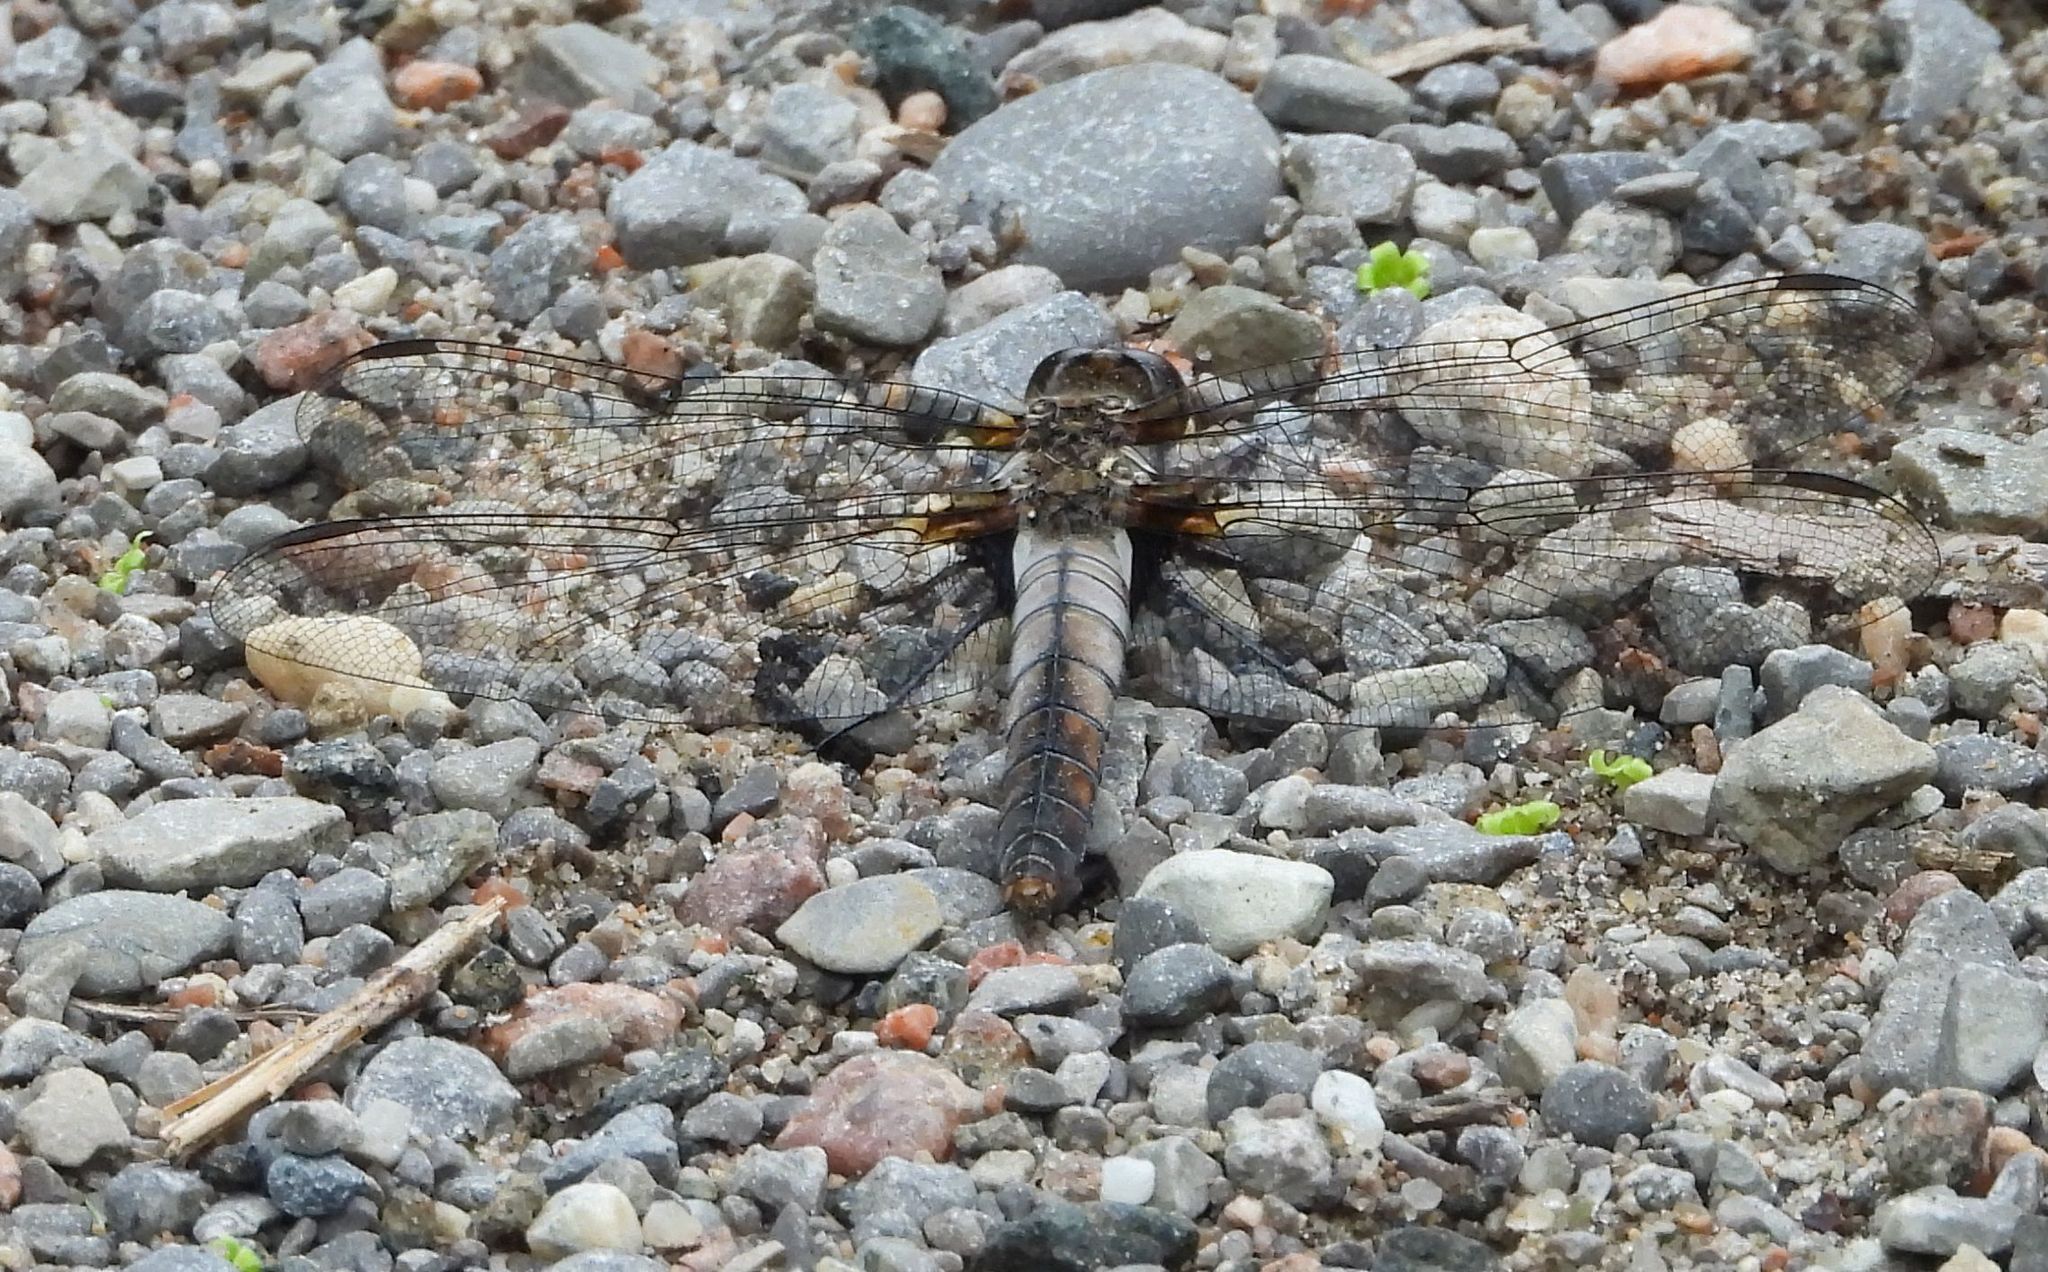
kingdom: Animalia
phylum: Arthropoda
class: Insecta
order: Odonata
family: Libellulidae
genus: Ladona
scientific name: Ladona julia
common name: Chalk-fronted corporal
